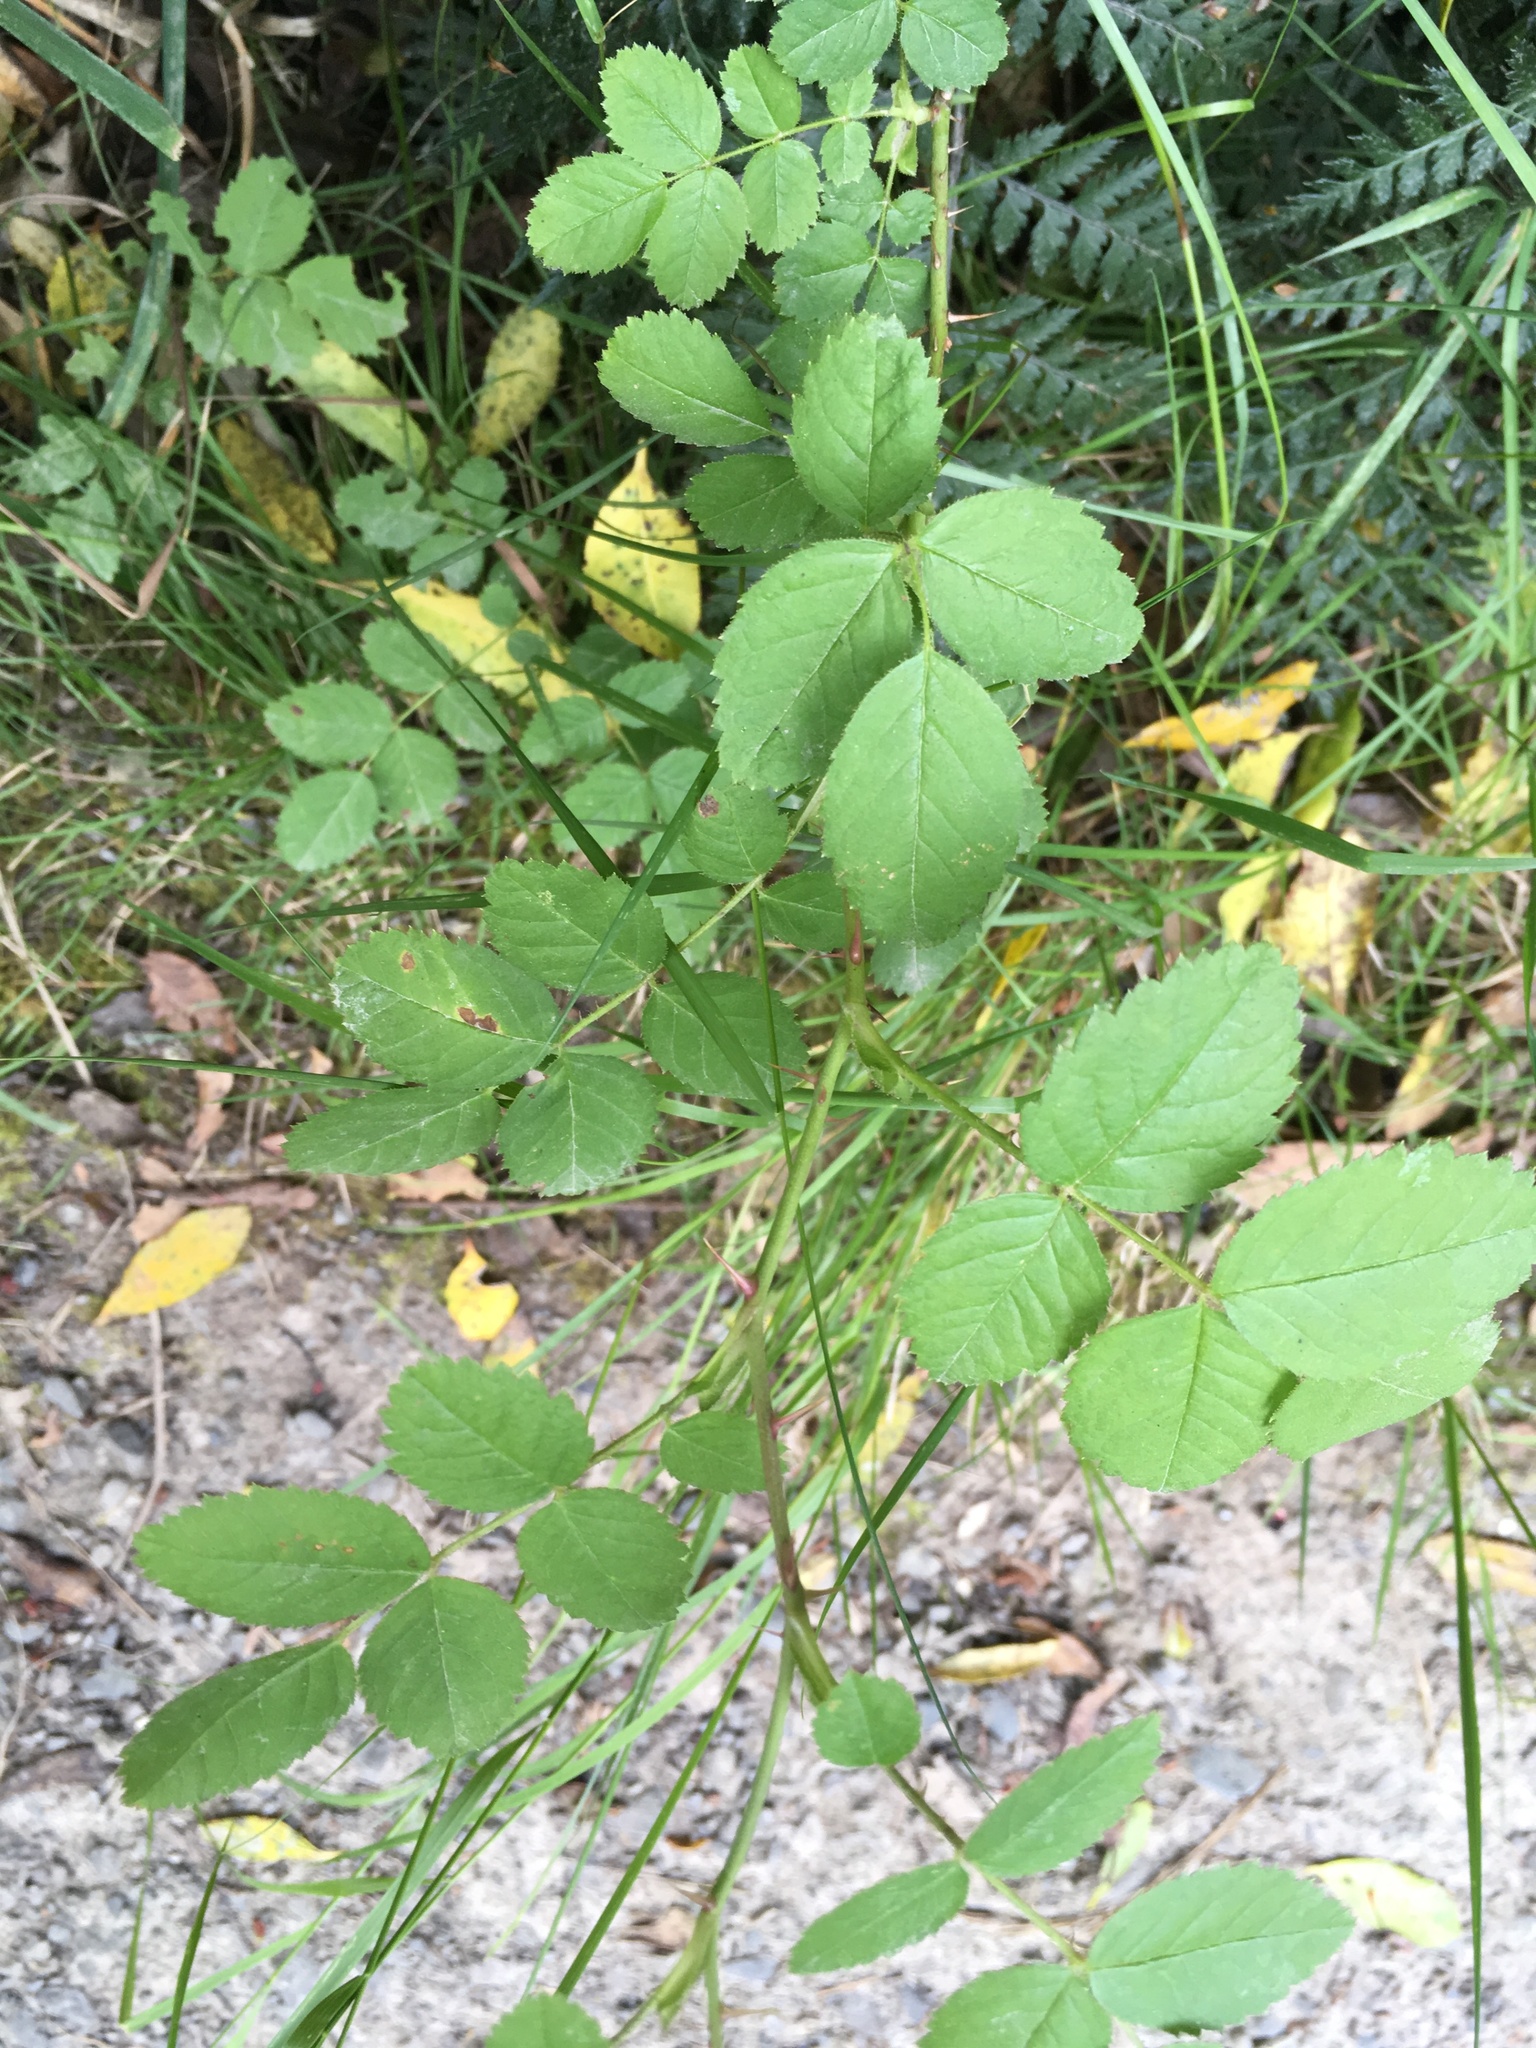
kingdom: Plantae
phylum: Tracheophyta
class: Magnoliopsida
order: Rosales
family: Rosaceae
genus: Rosa
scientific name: Rosa rubiginosa
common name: Sweet-briar
